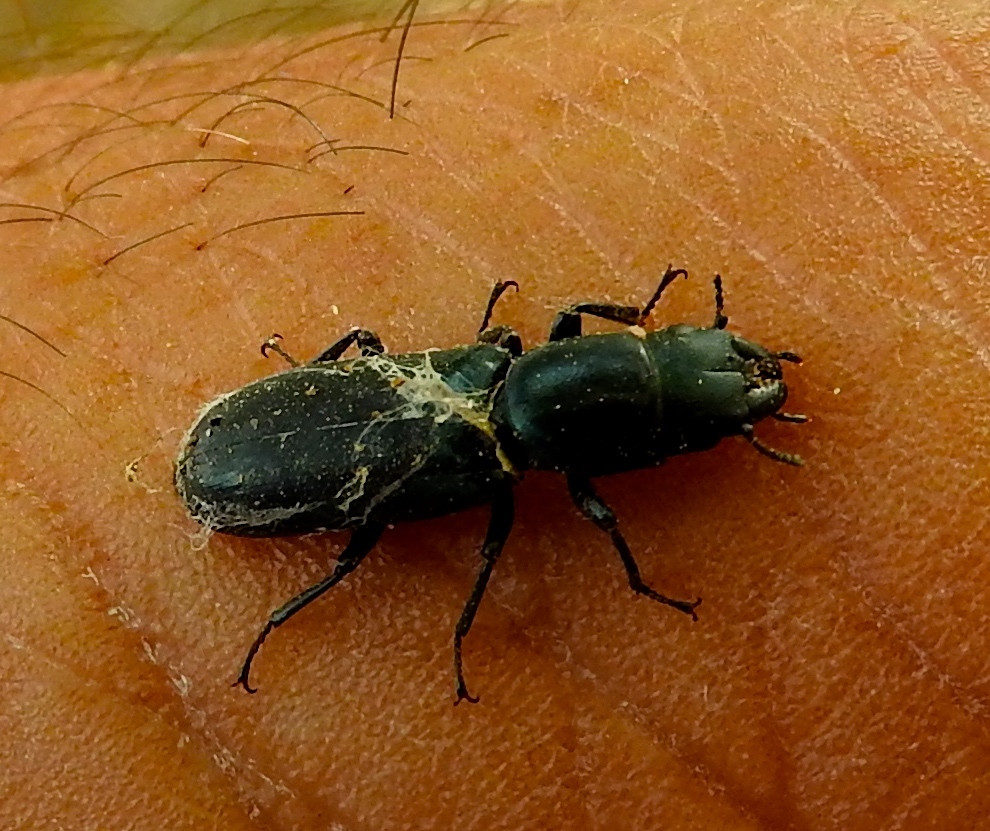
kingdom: Animalia
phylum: Arthropoda
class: Insecta
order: Coleoptera
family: Trogossitidae
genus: Temnoscheila
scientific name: Temnoscheila
